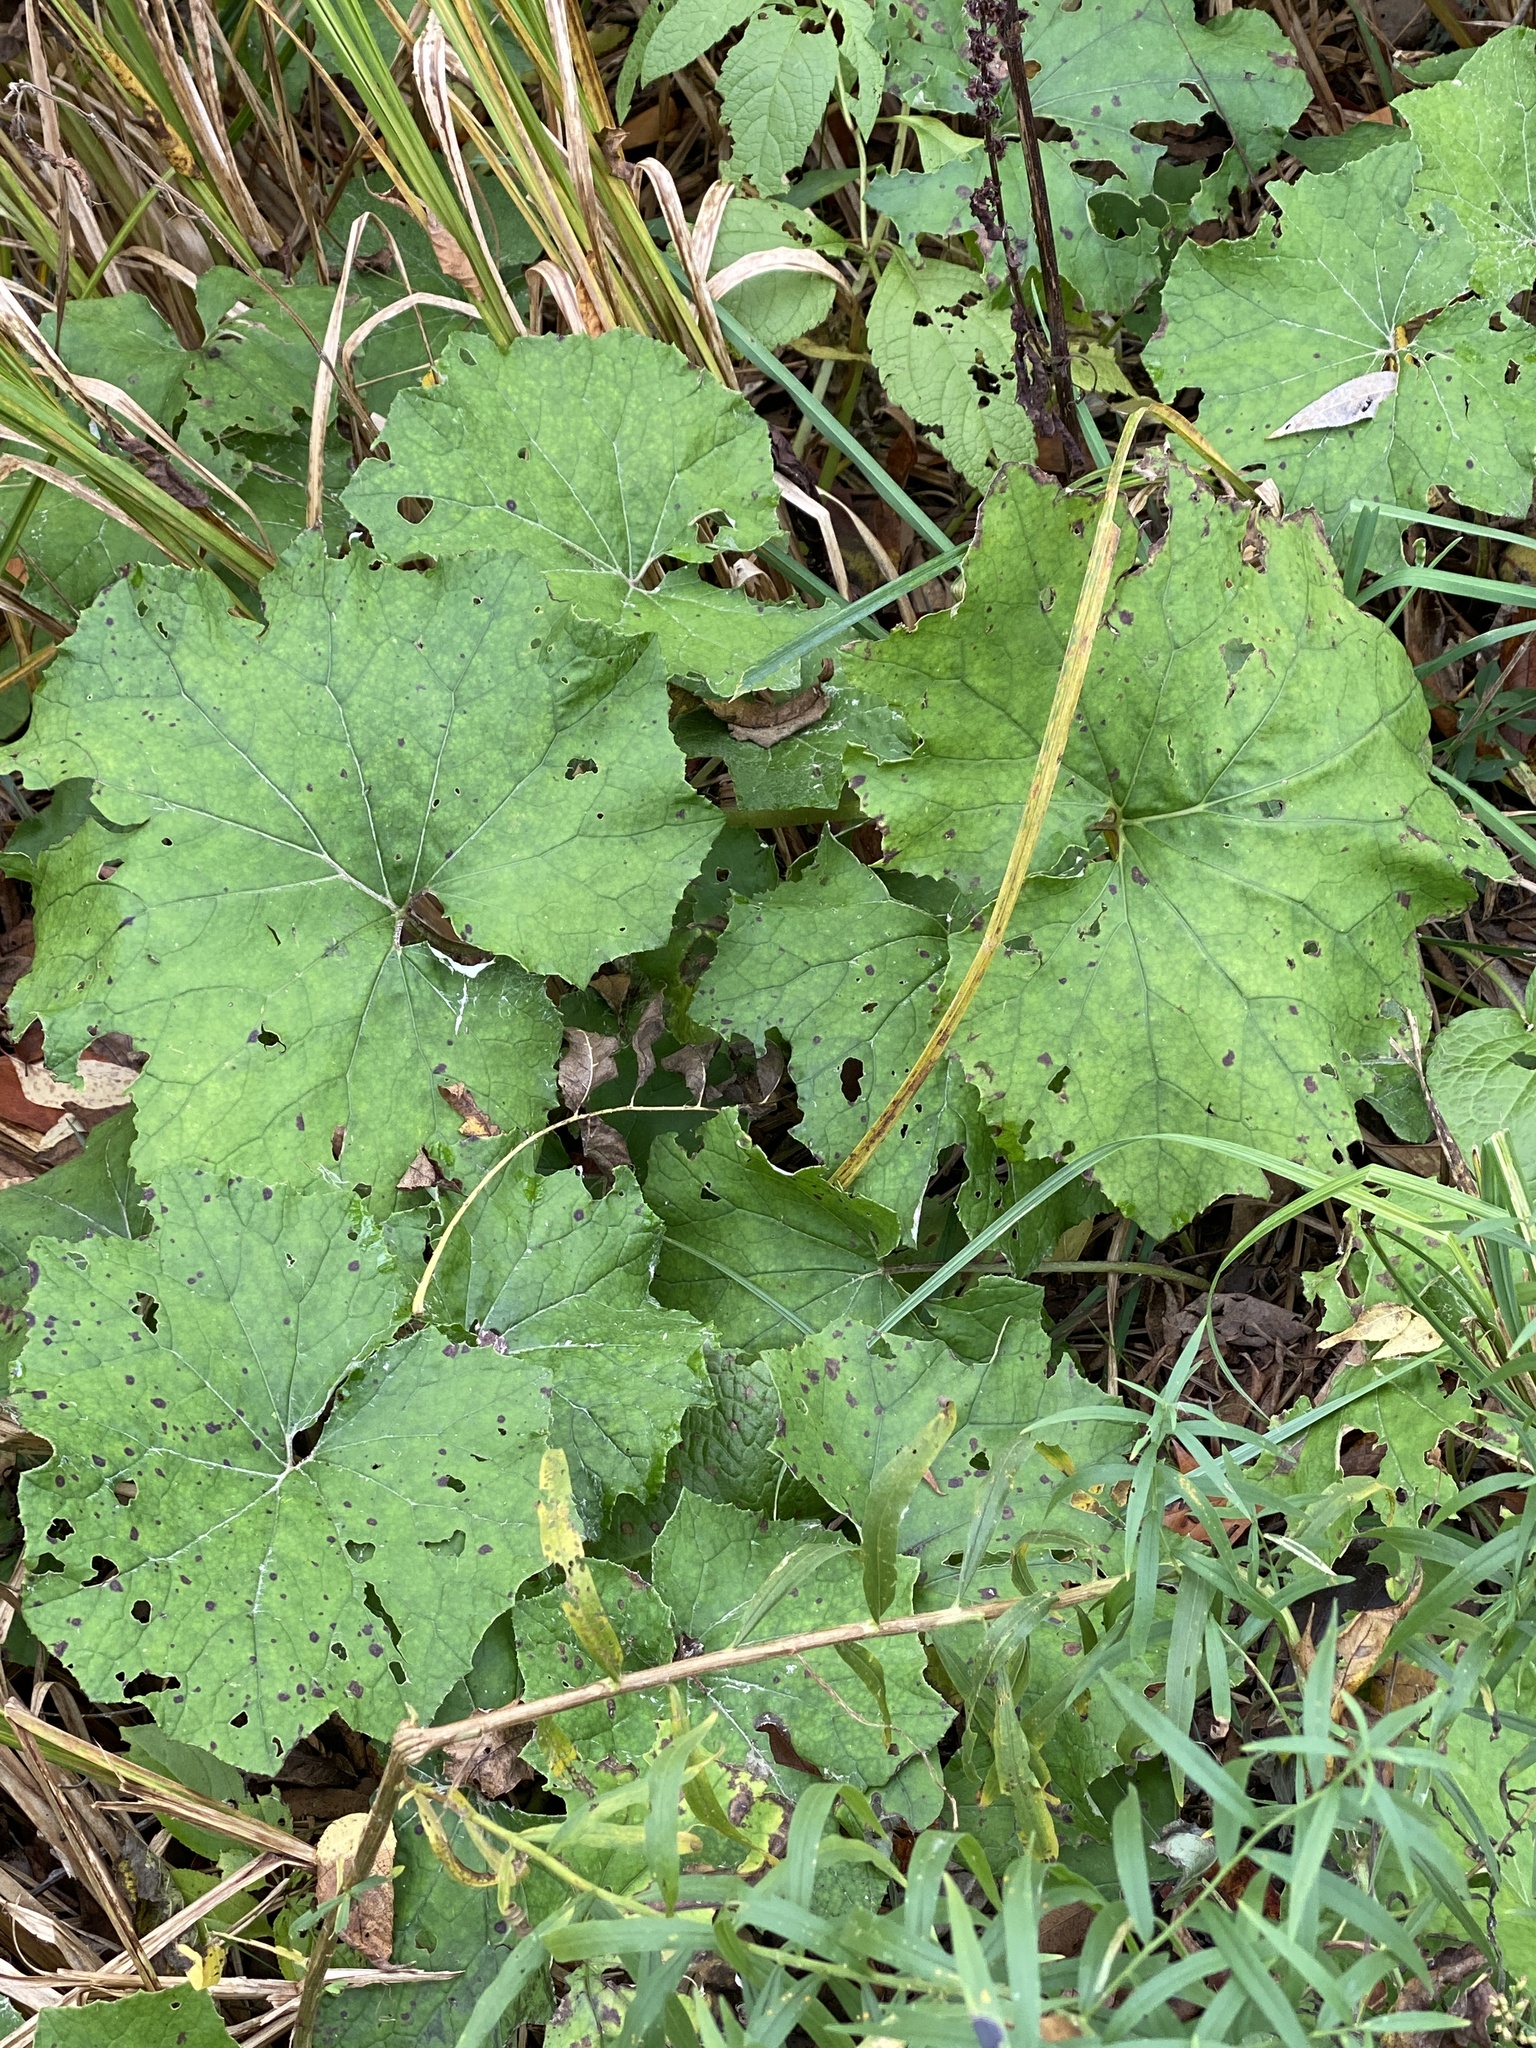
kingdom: Plantae
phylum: Tracheophyta
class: Magnoliopsida
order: Asterales
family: Asteraceae
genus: Tussilago
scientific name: Tussilago farfara
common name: Coltsfoot
